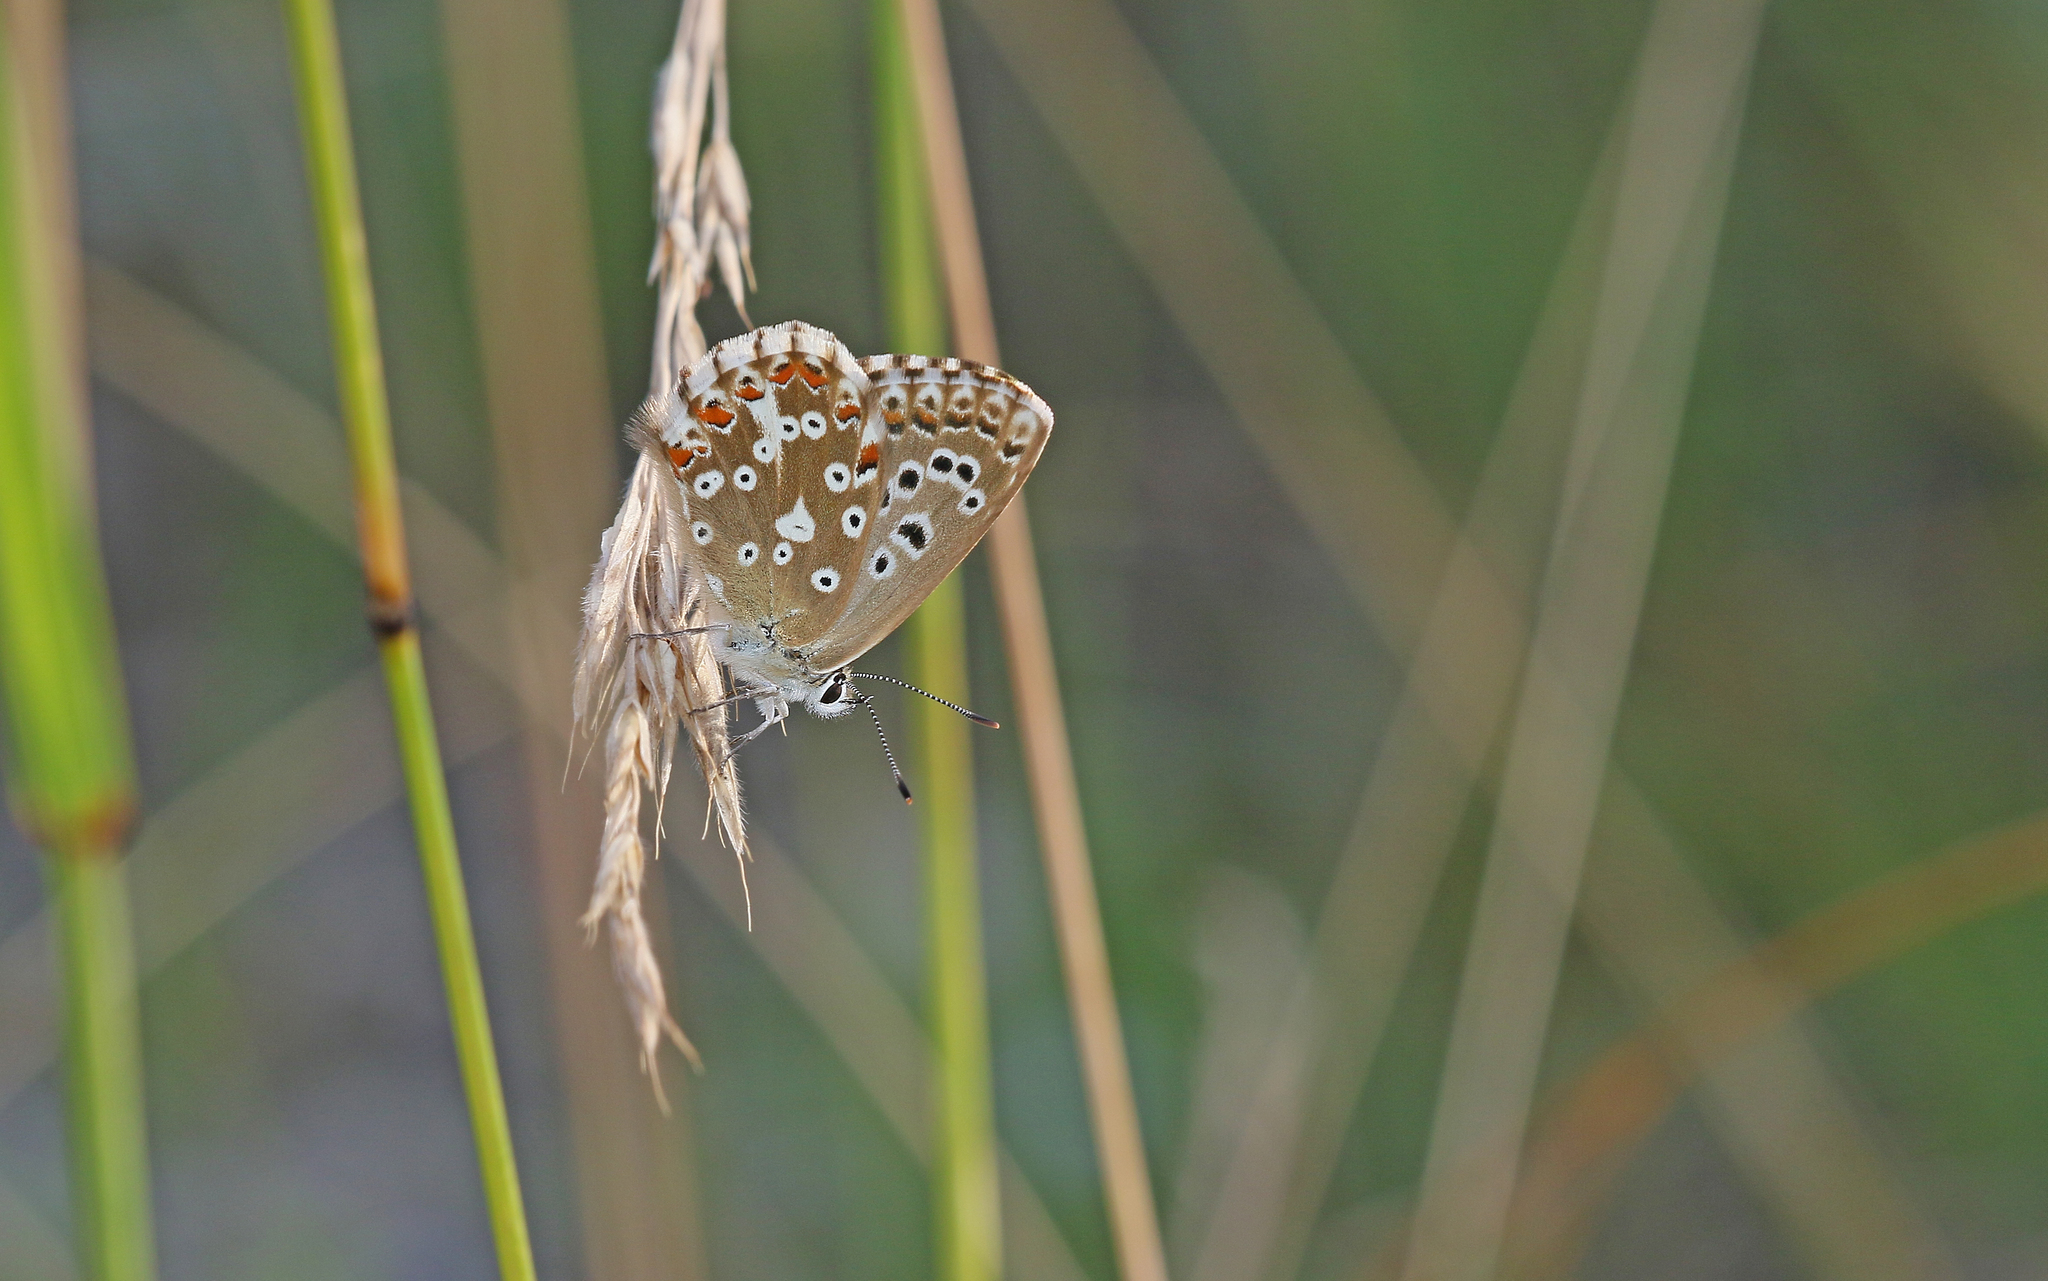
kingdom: Animalia
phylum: Arthropoda
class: Insecta
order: Lepidoptera
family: Lycaenidae
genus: Lysandra
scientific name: Lysandra coridon
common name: Chalkhill blue
